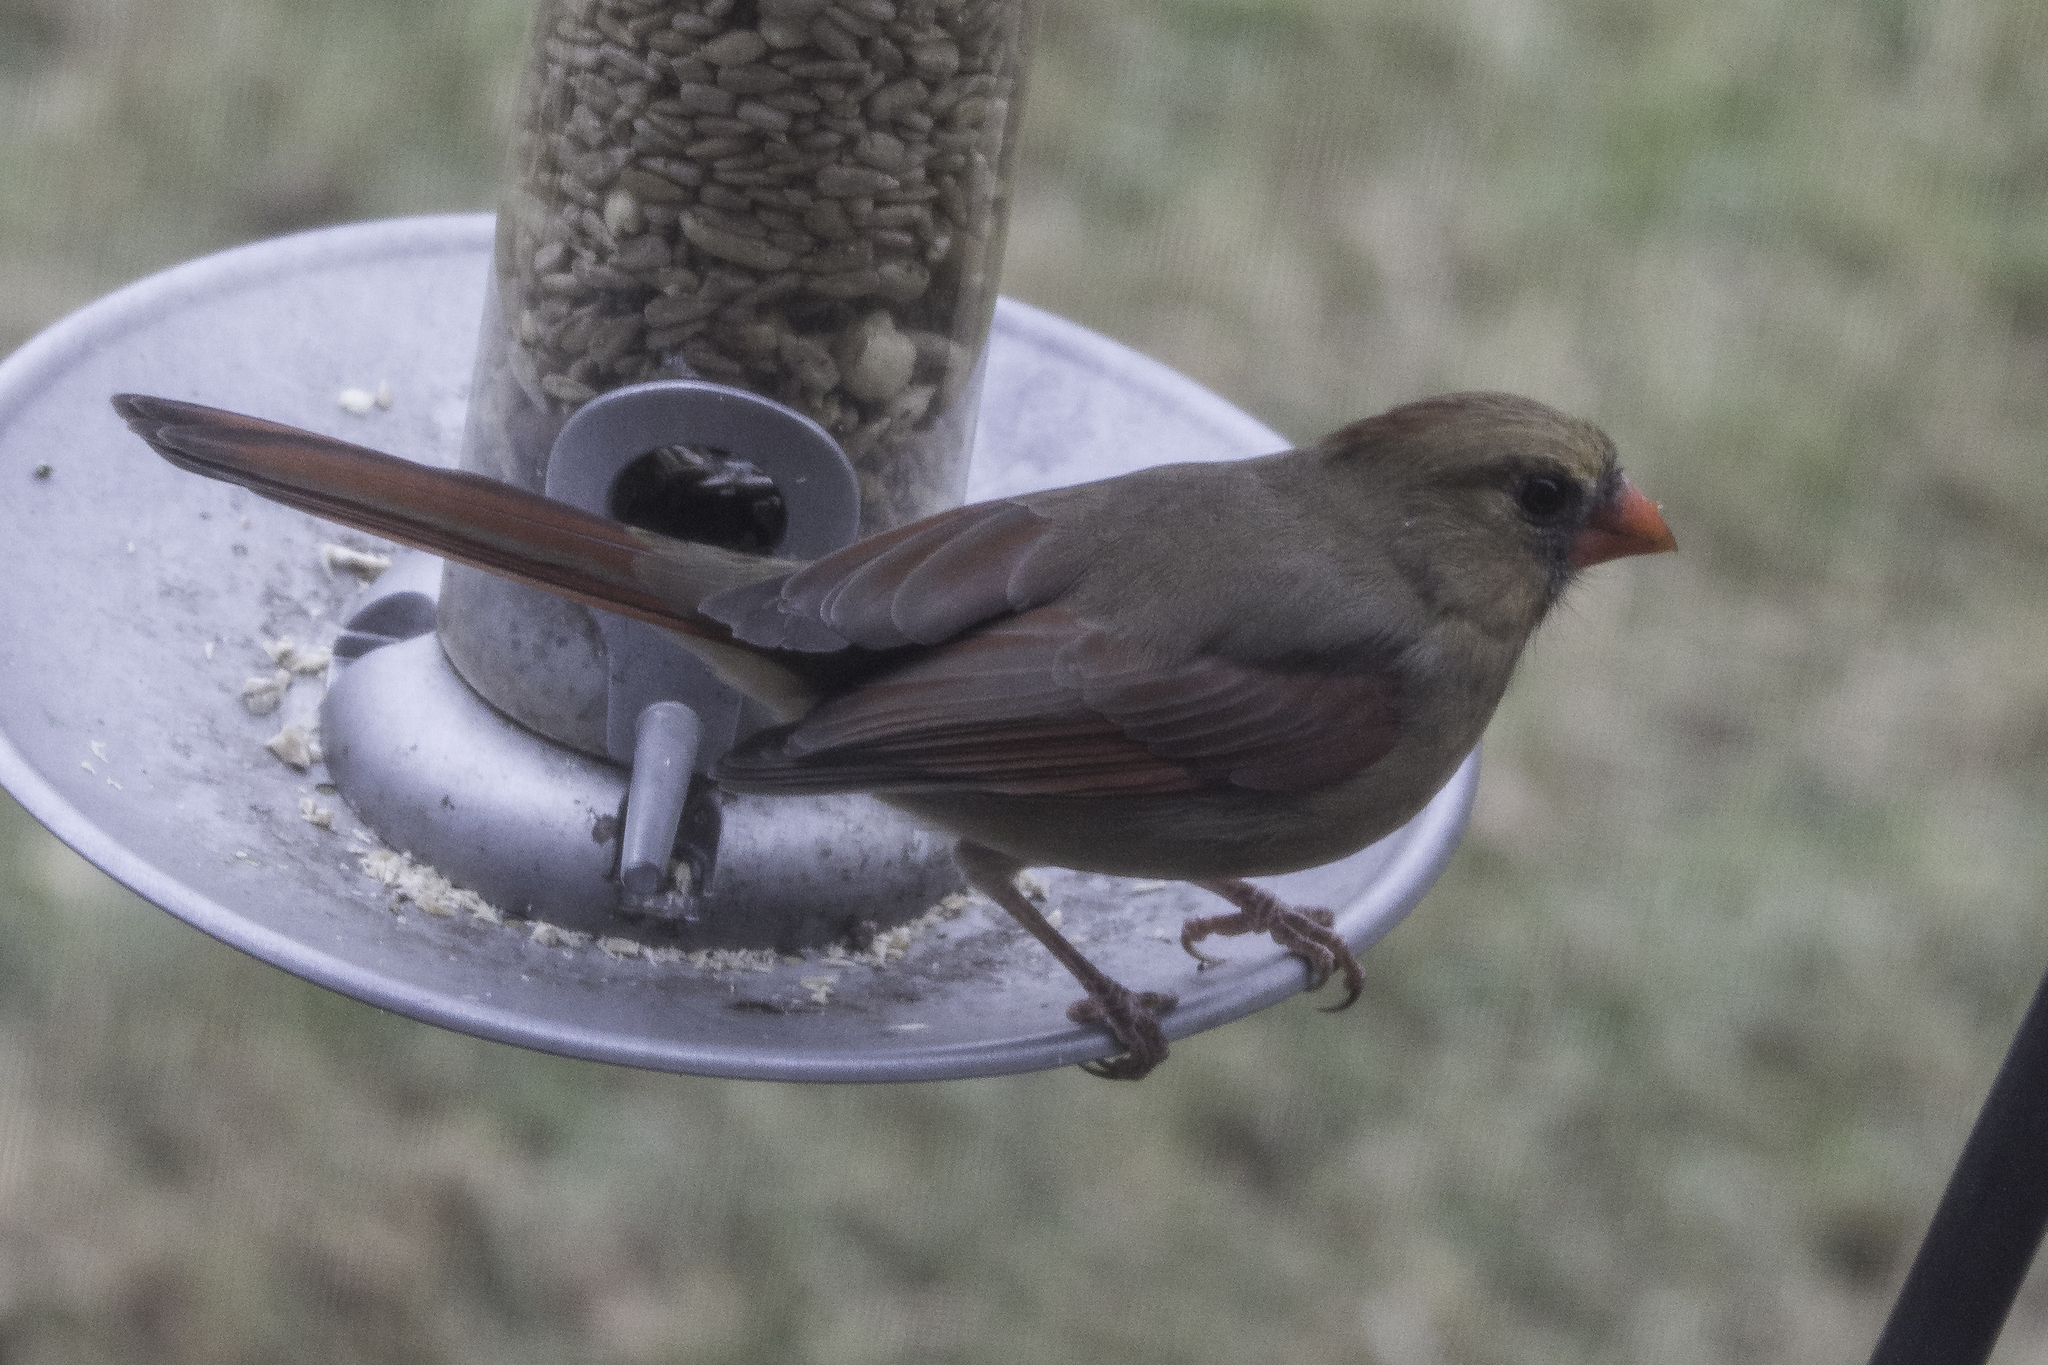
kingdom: Animalia
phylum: Chordata
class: Aves
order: Passeriformes
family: Cardinalidae
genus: Cardinalis
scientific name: Cardinalis cardinalis
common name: Northern cardinal
